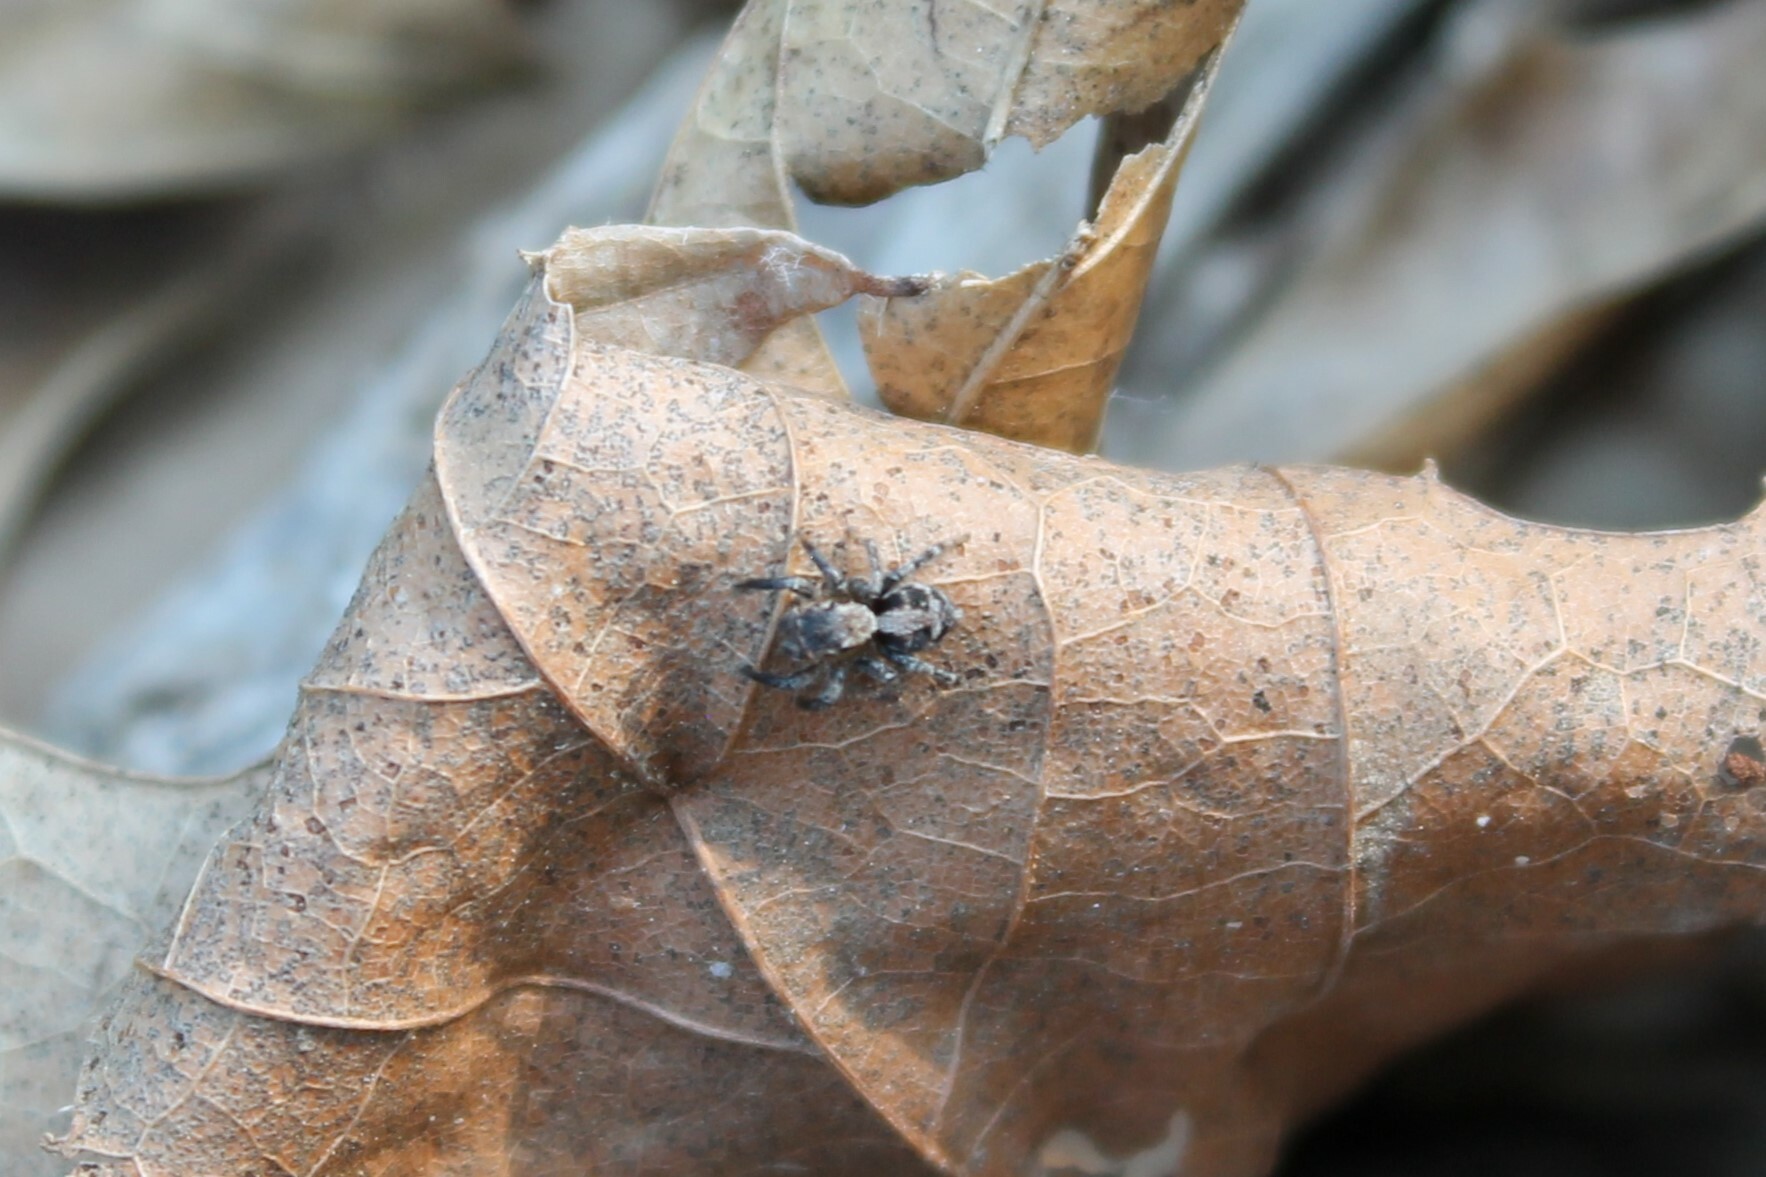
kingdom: Animalia
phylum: Arthropoda
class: Arachnida
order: Araneae
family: Salticidae
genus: Naphrys
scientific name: Naphrys pulex
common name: Flea jumping spider
